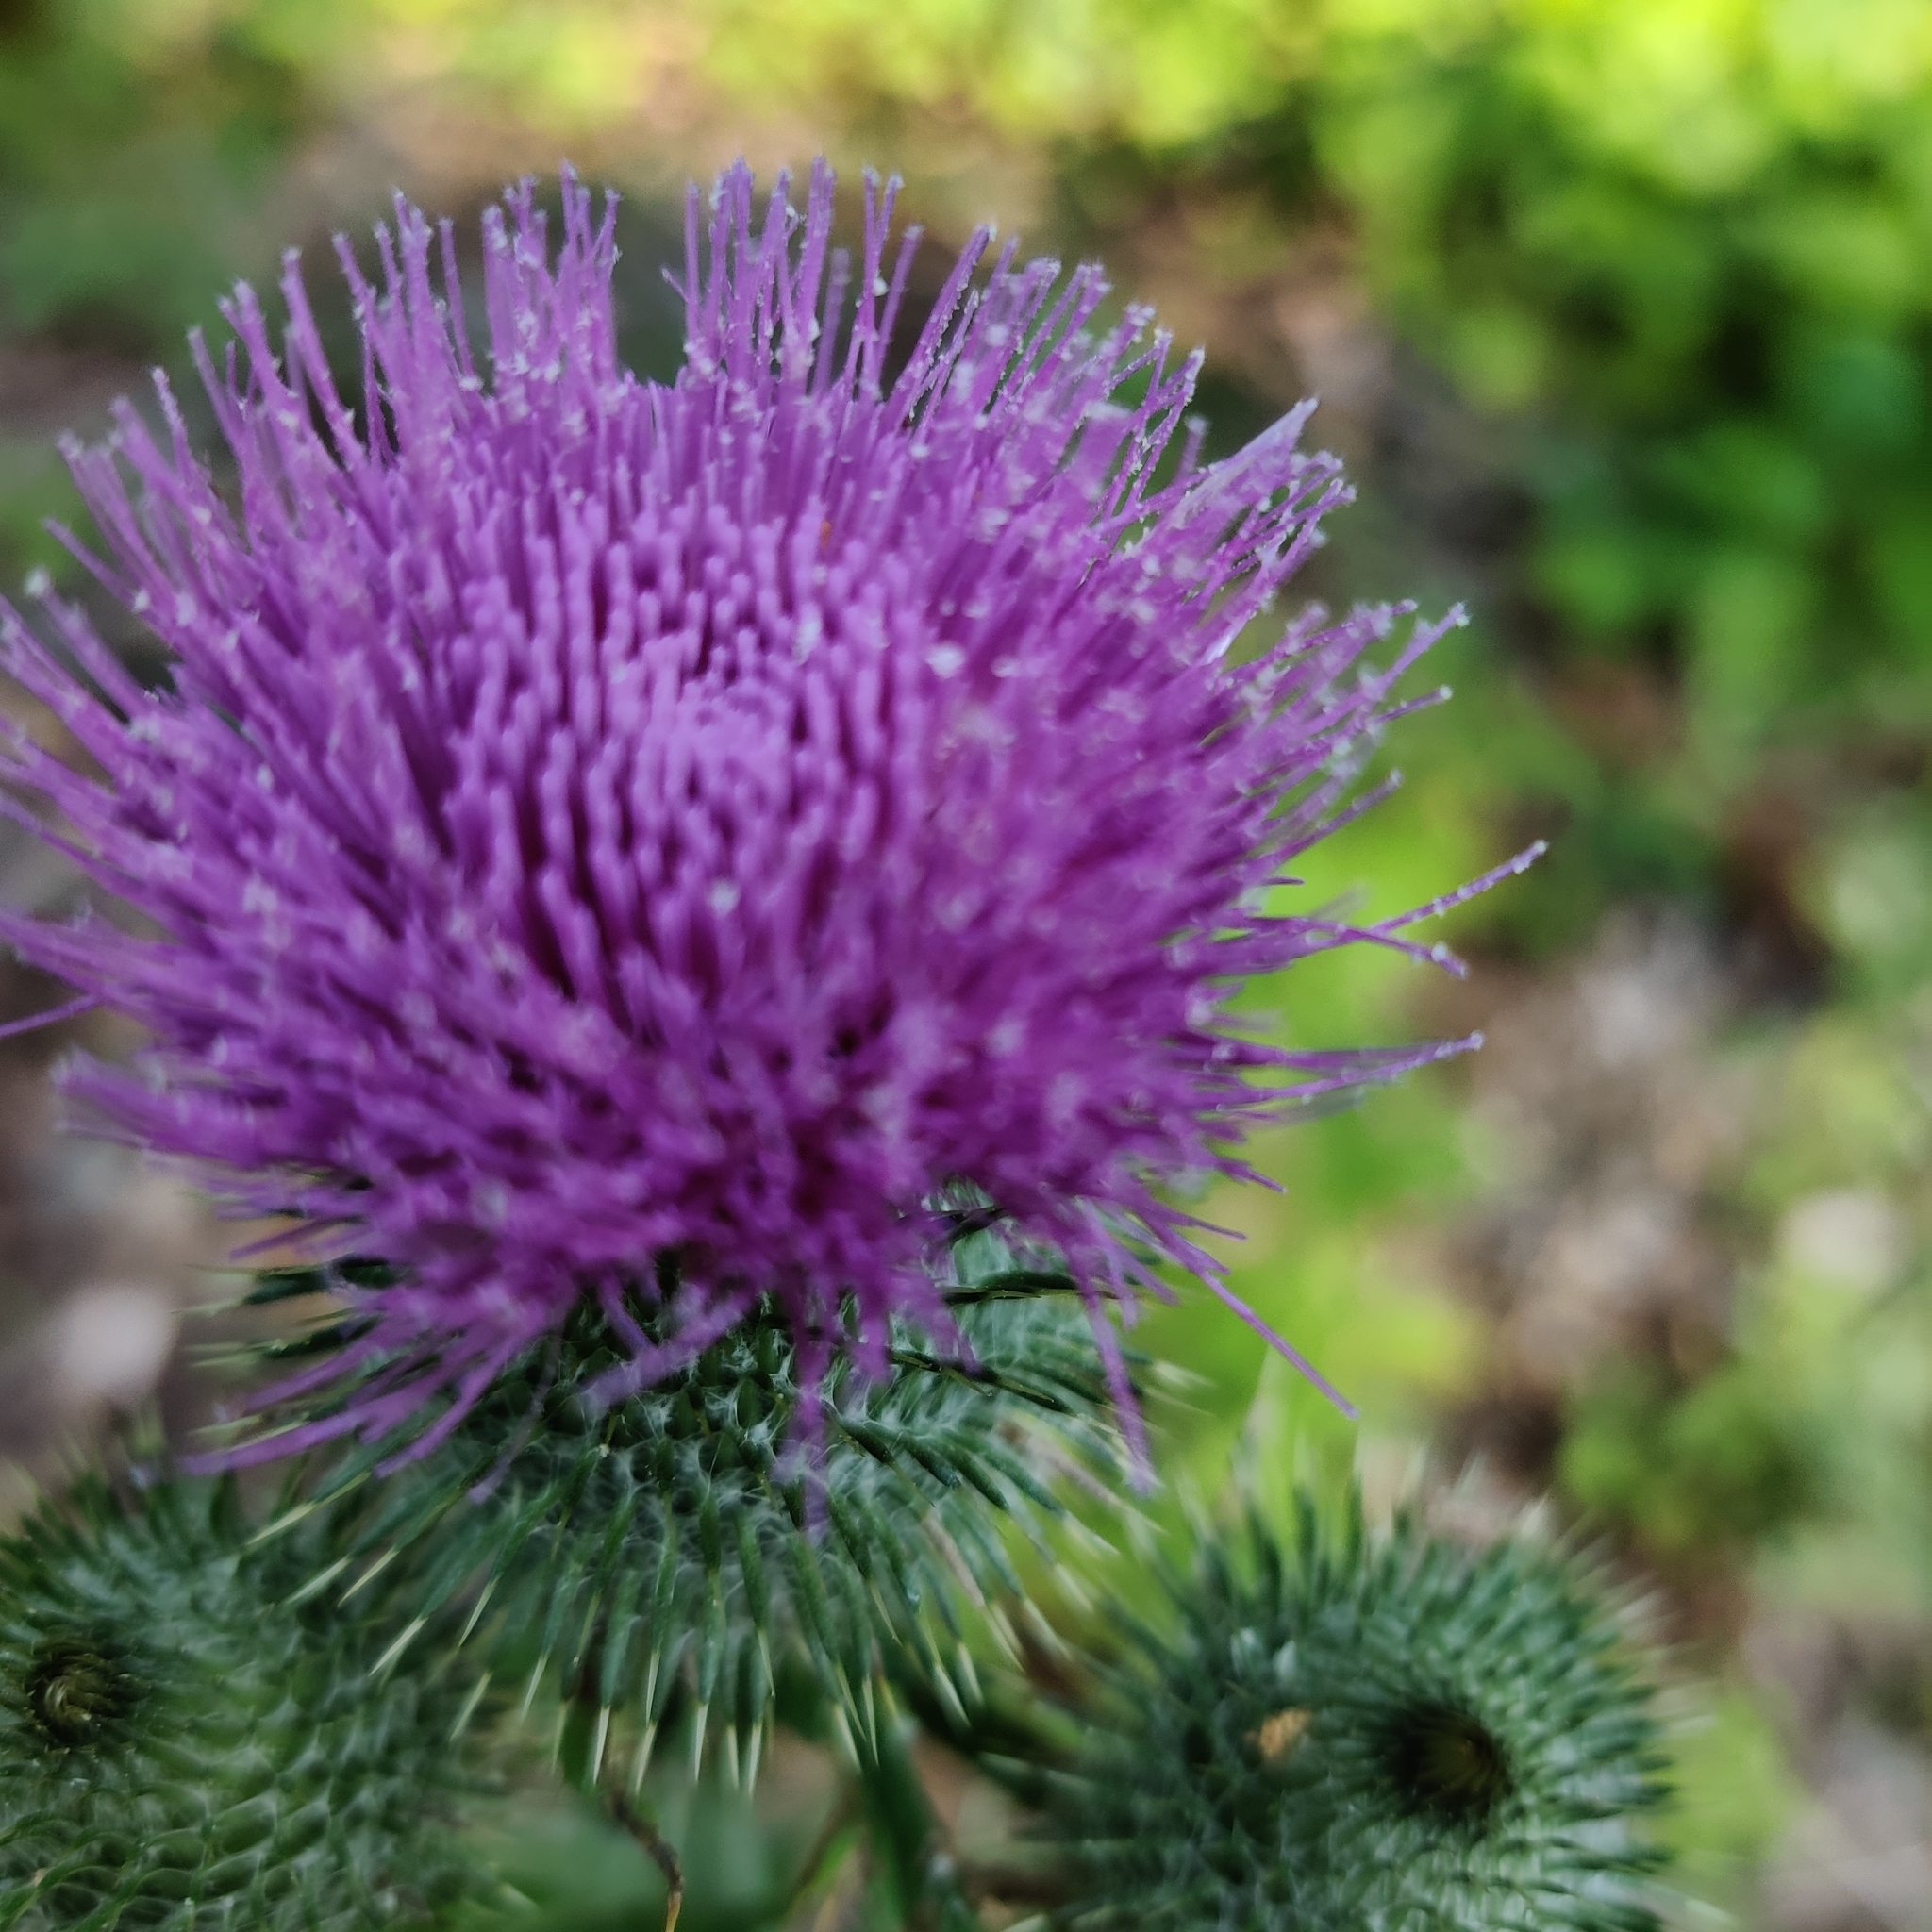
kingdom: Plantae
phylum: Tracheophyta
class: Magnoliopsida
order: Asterales
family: Asteraceae
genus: Cirsium
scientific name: Cirsium vulgare
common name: Bull thistle
